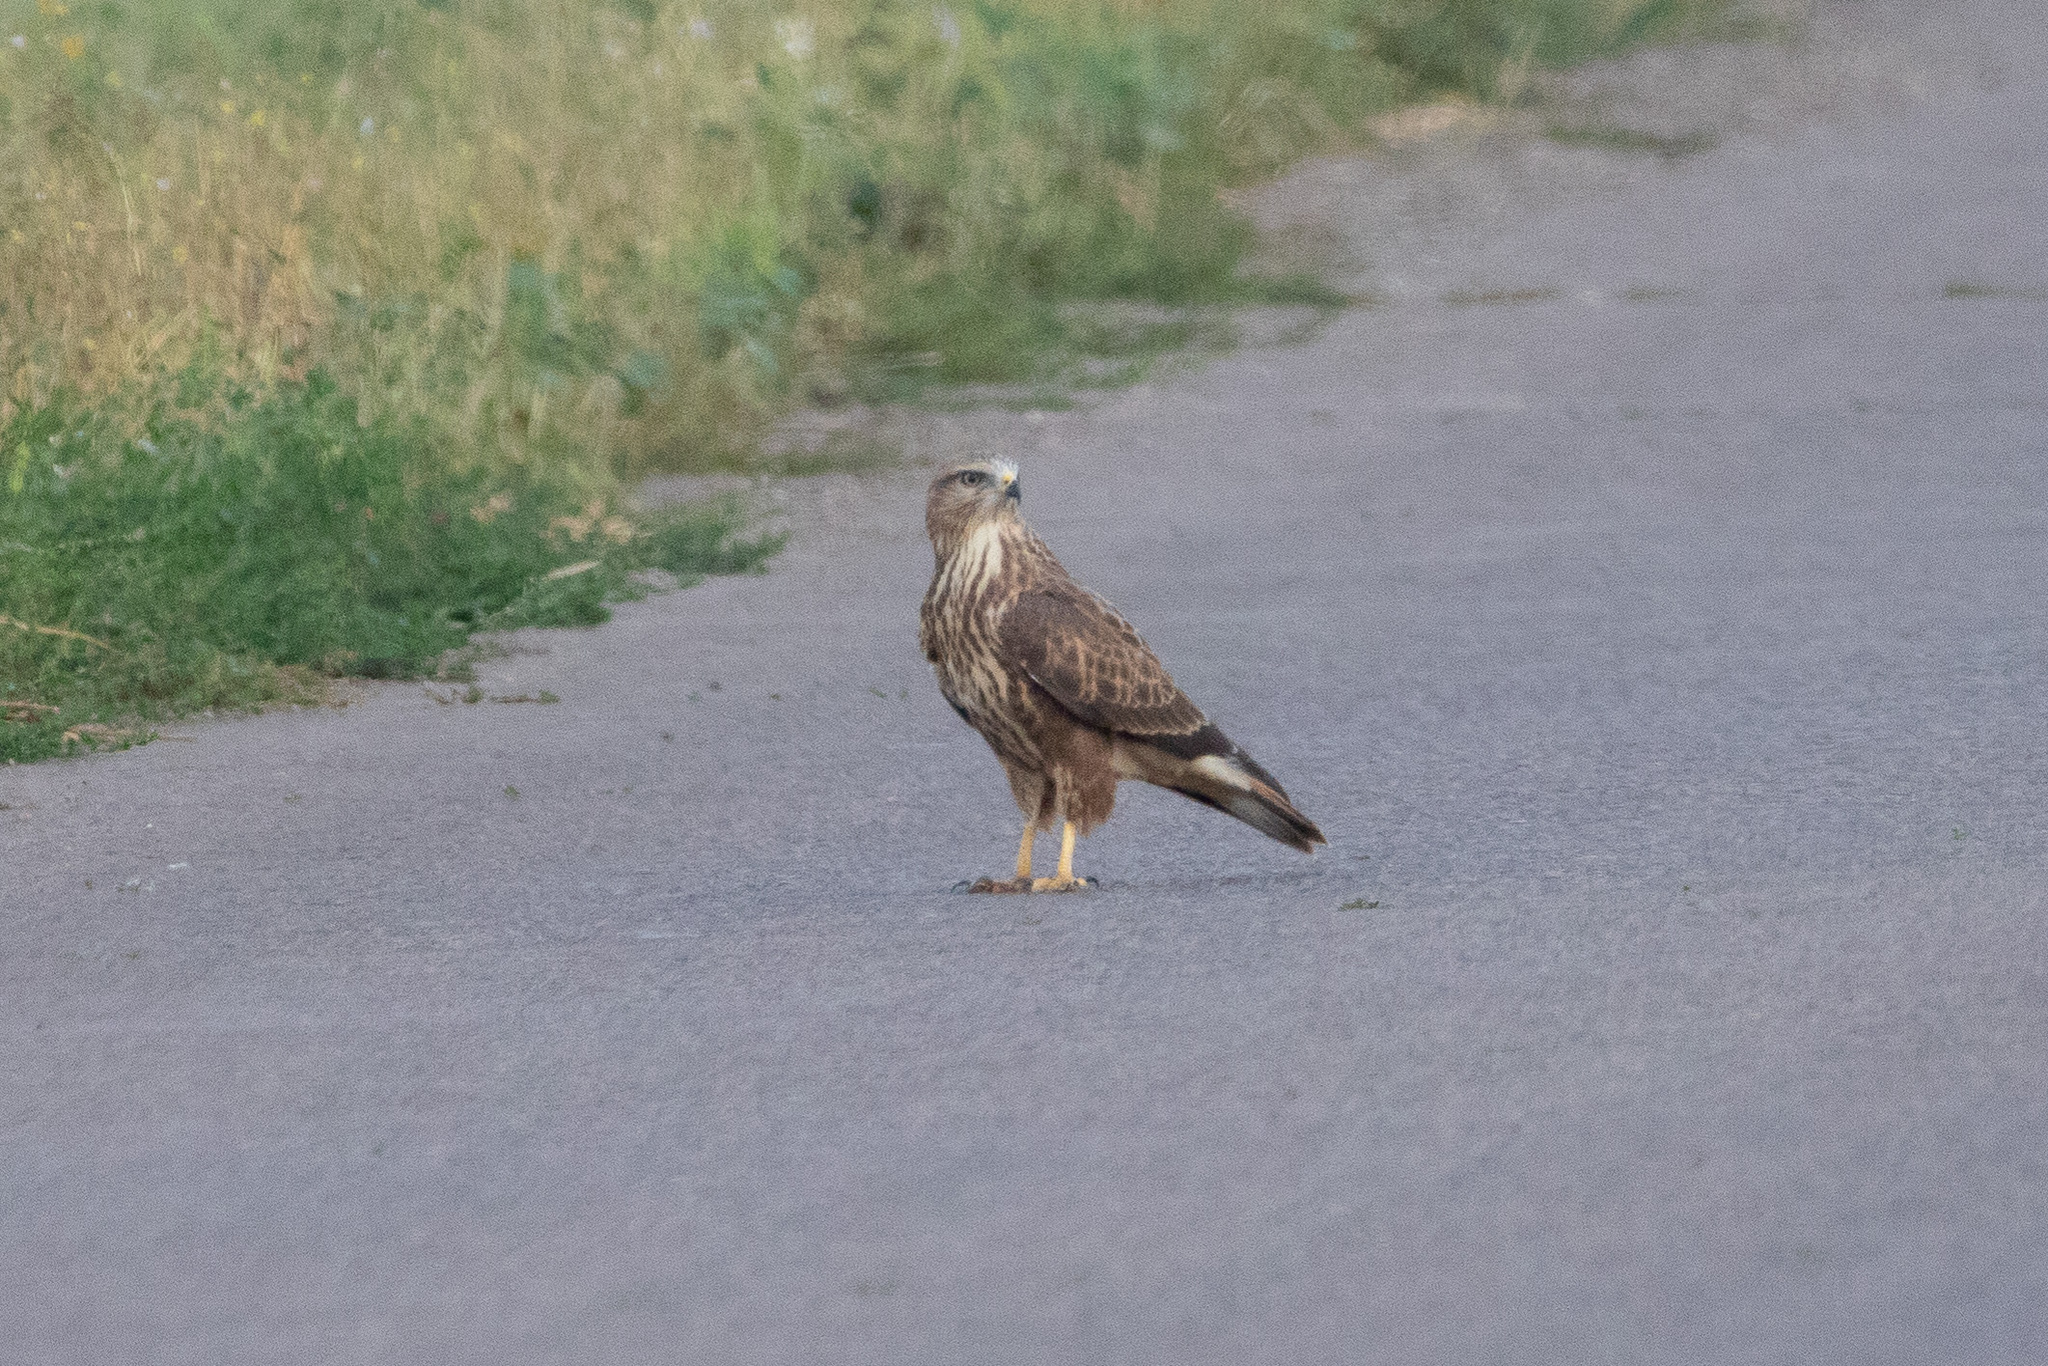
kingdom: Animalia
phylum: Chordata
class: Aves
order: Accipitriformes
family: Accipitridae
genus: Buteo
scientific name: Buteo buteo
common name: Common buzzard
